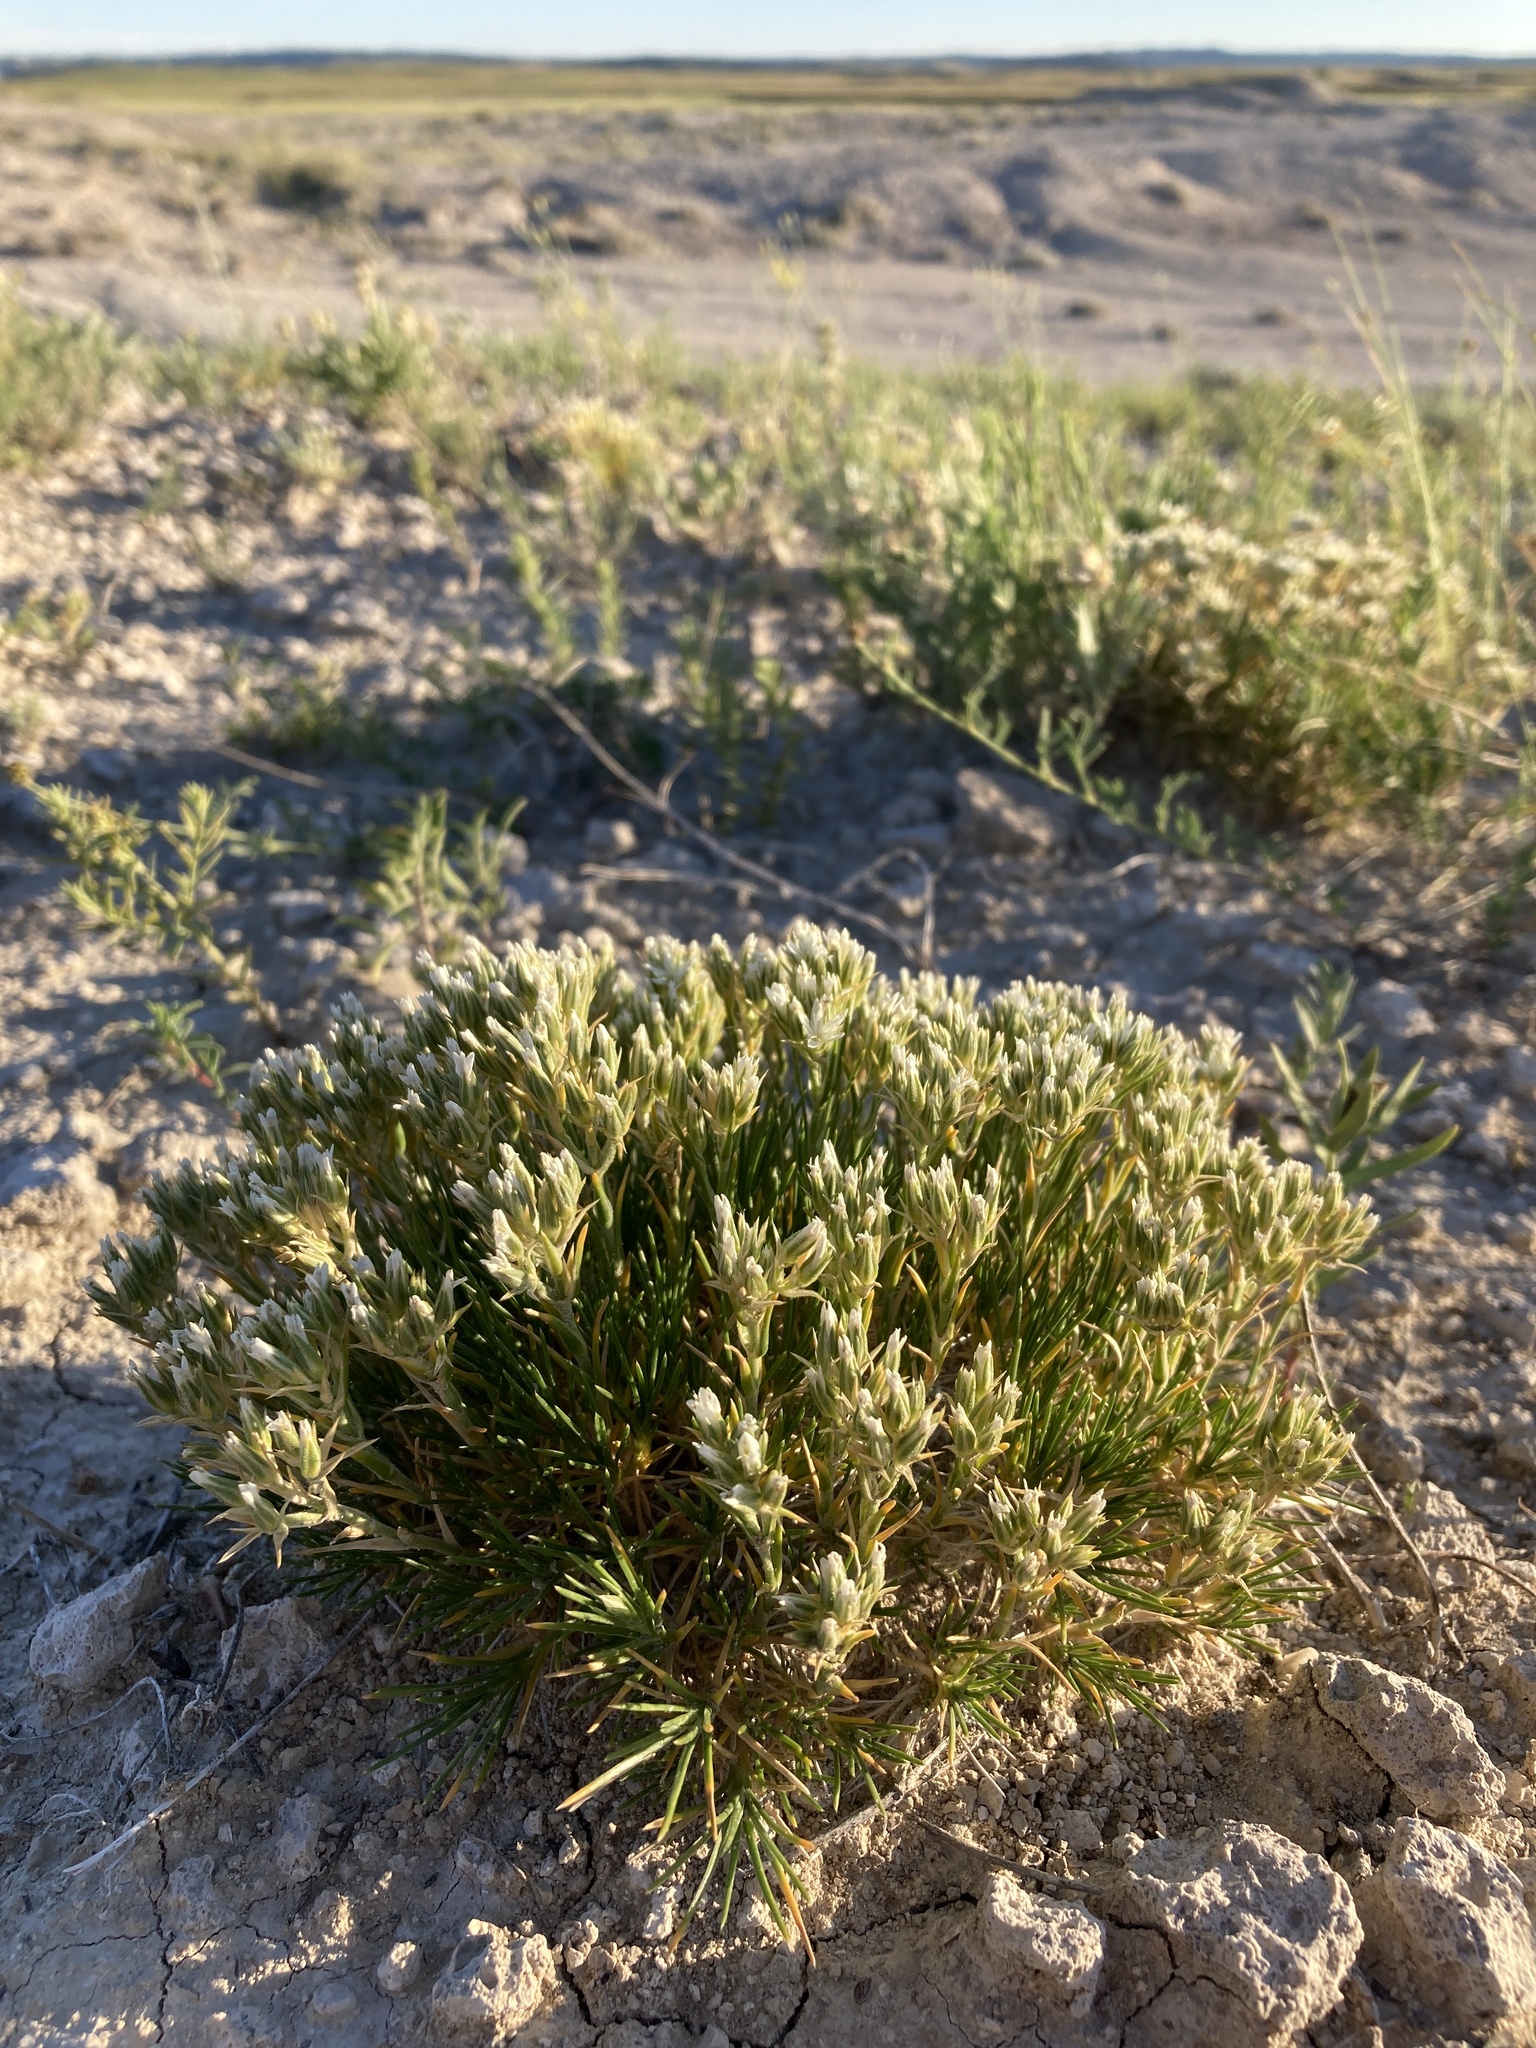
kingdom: Plantae
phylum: Tracheophyta
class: Magnoliopsida
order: Caryophyllales
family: Caryophyllaceae
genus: Eremogone
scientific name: Eremogone hookeri
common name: Hooker's sandwort
